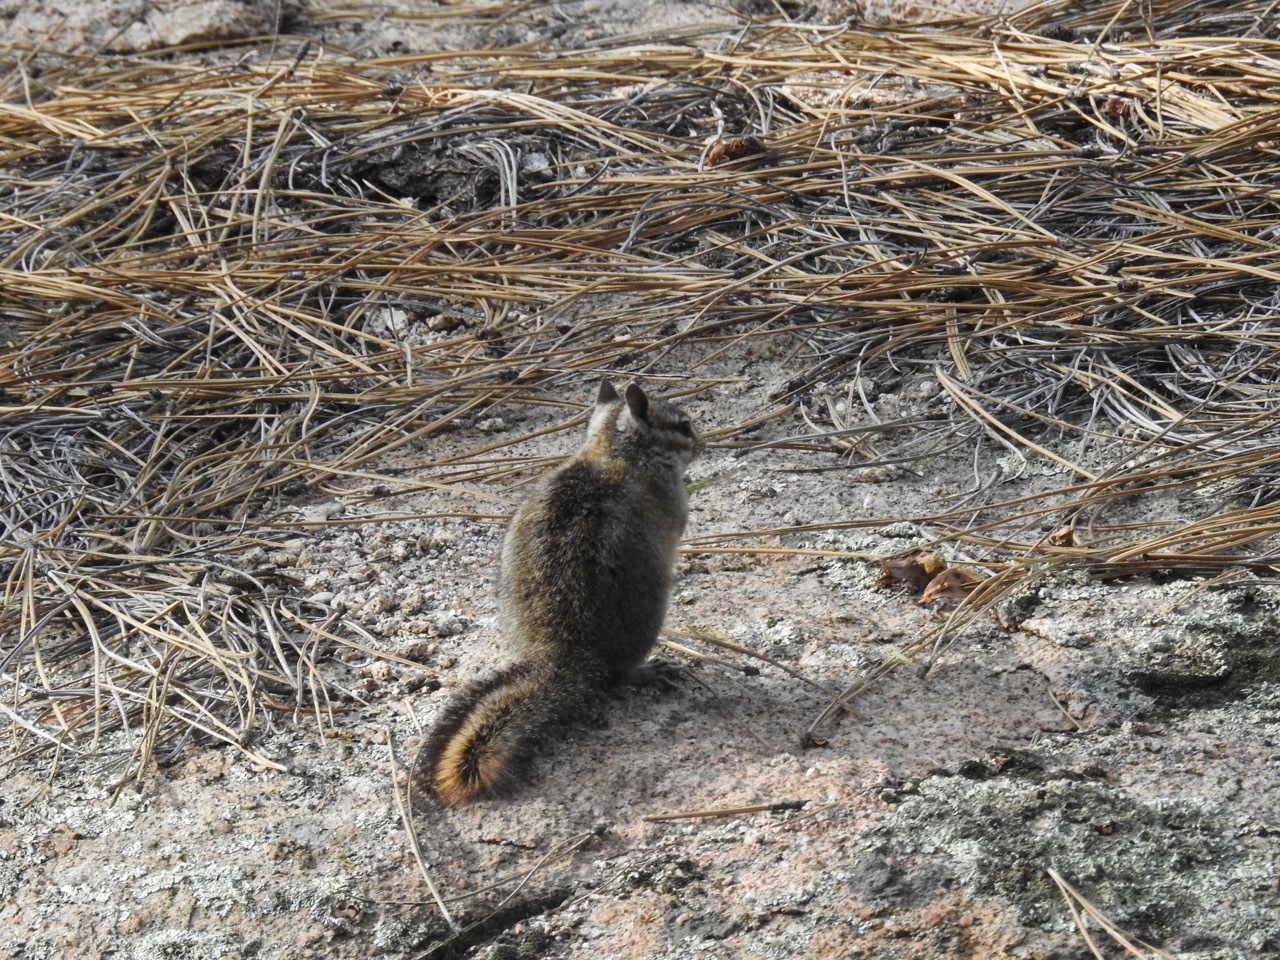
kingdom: Animalia
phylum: Chordata
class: Mammalia
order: Rodentia
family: Sciuridae
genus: Tamias
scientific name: Tamias obscurus
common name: California chipmunk
